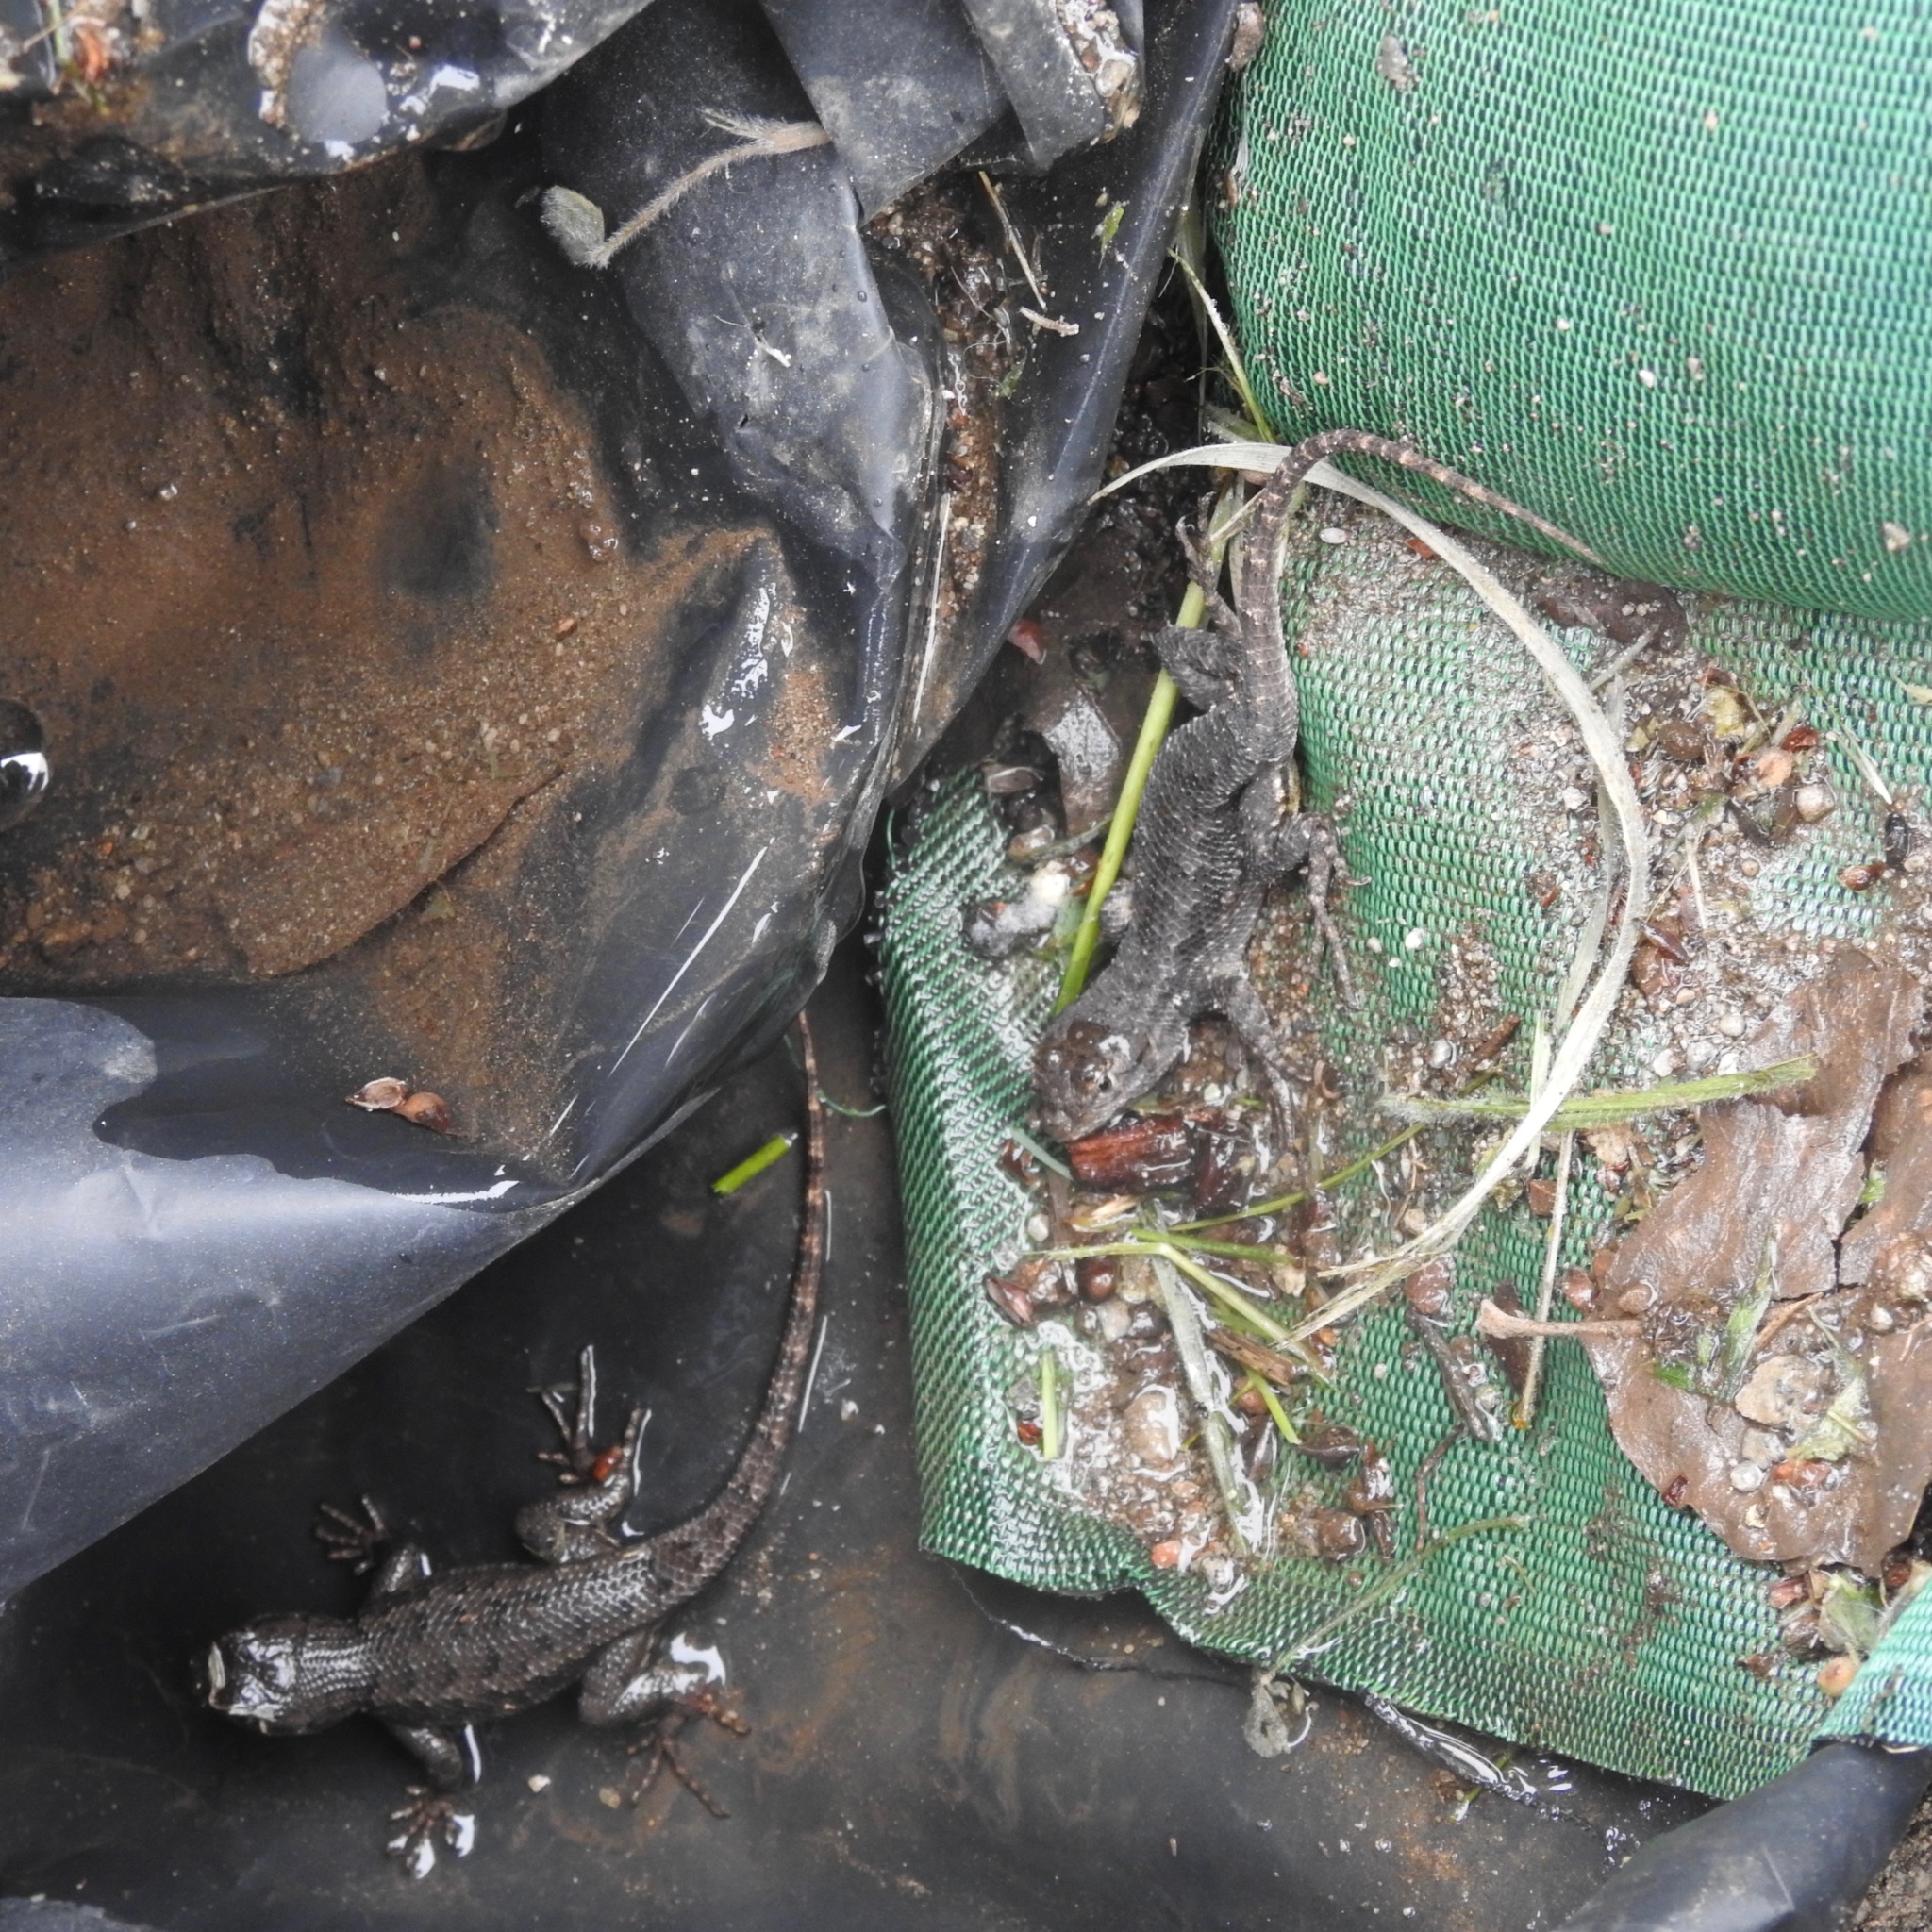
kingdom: Animalia
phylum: Chordata
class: Squamata
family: Phrynosomatidae
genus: Sceloporus
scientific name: Sceloporus occidentalis
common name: Western fence lizard
